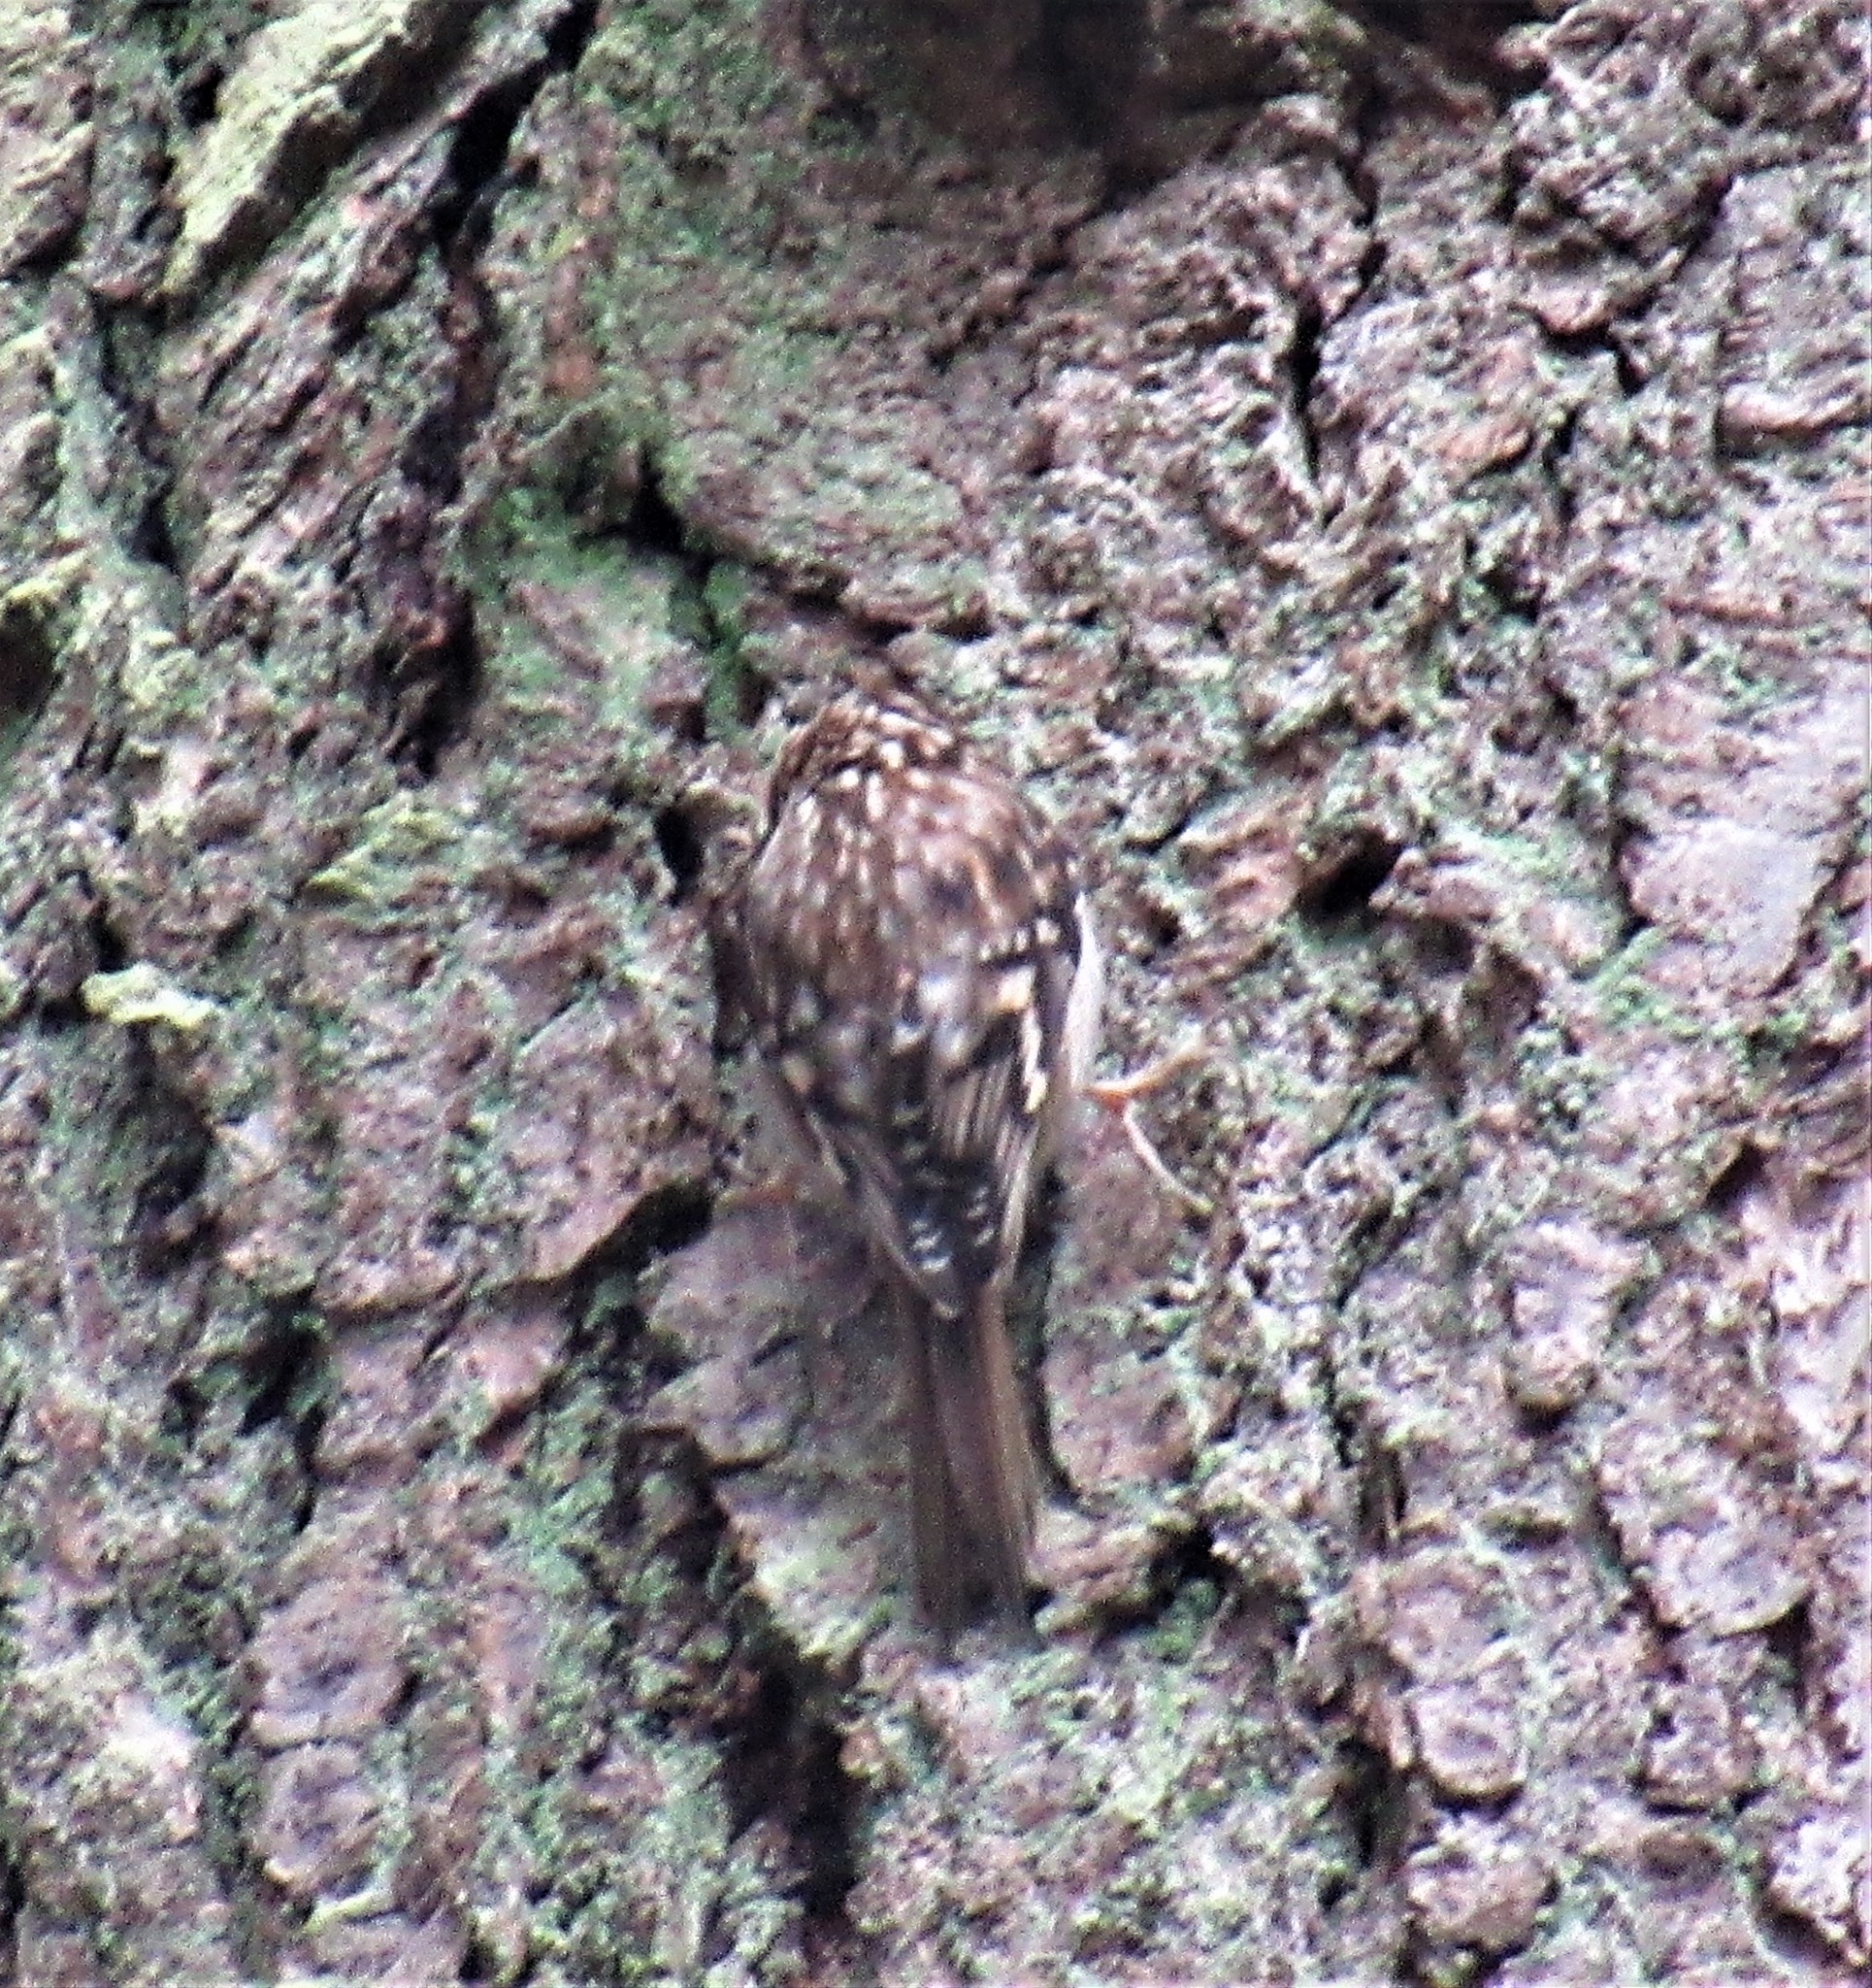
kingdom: Animalia
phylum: Chordata
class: Aves
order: Passeriformes
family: Certhiidae
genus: Certhia
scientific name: Certhia americana
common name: Brown creeper
